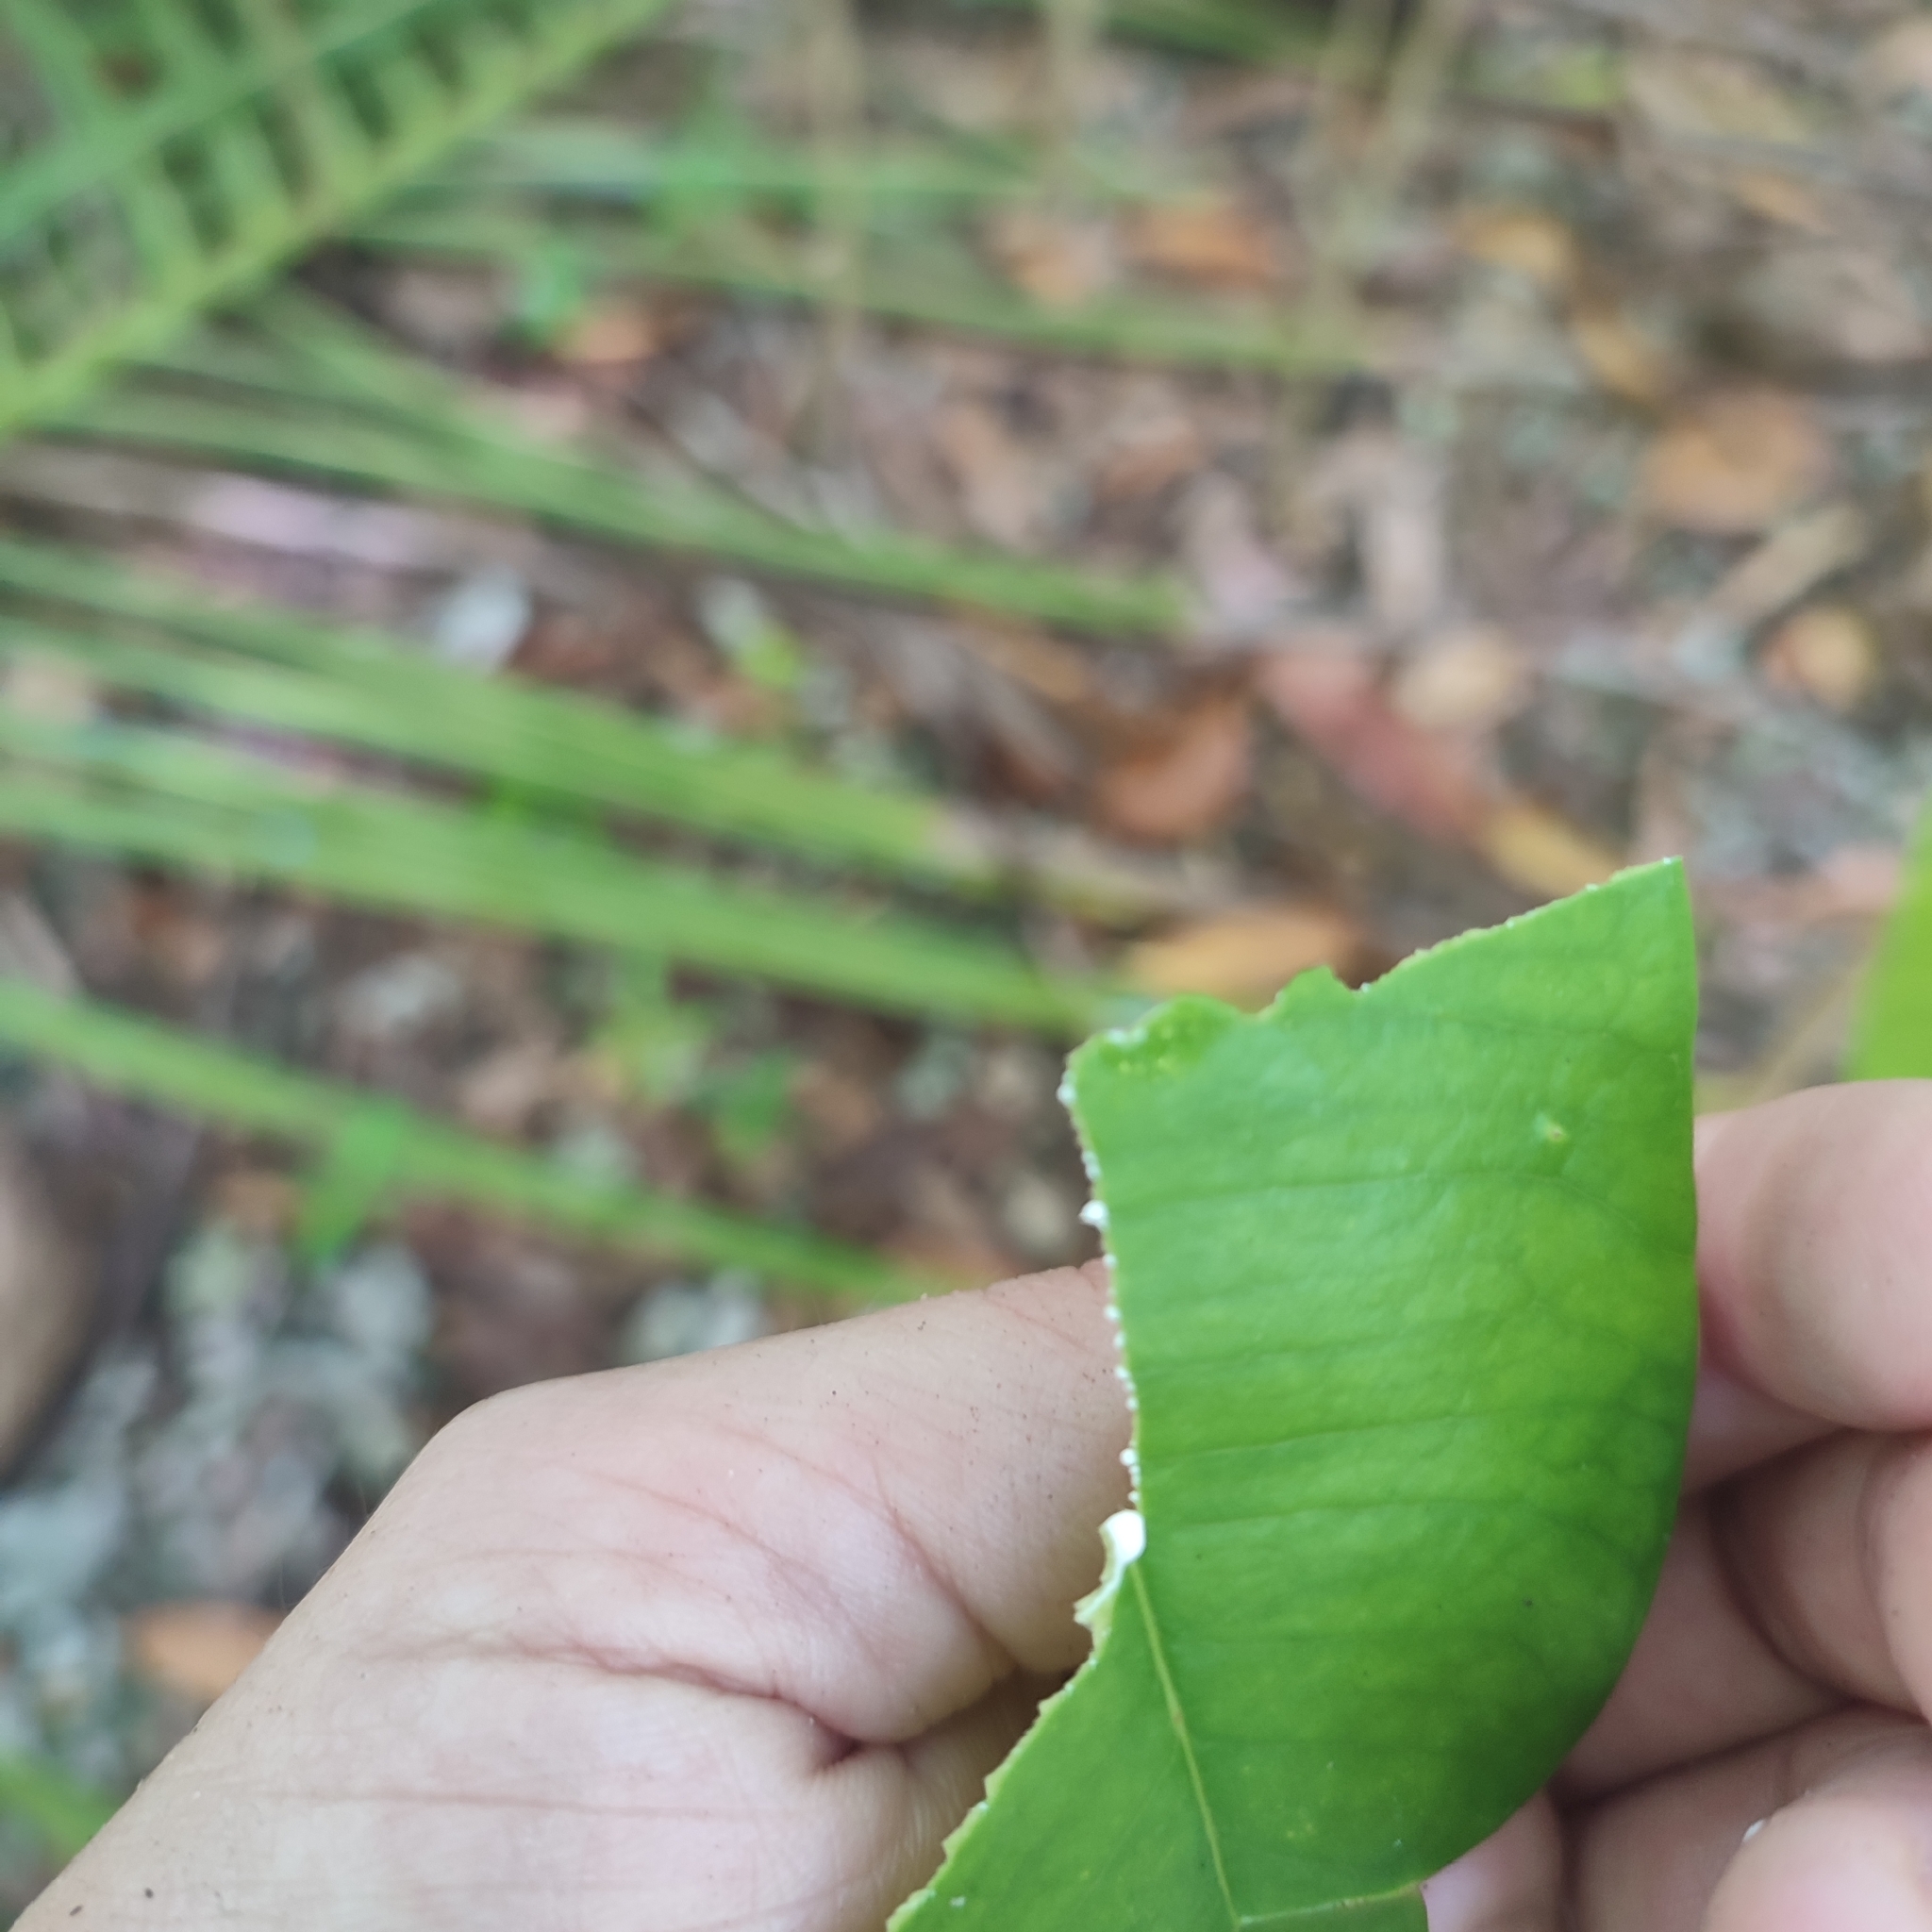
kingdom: Plantae
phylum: Tracheophyta
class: Magnoliopsida
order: Gentianales
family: Apocynaceae
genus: Ochrosia
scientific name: Ochrosia oppositifolia
